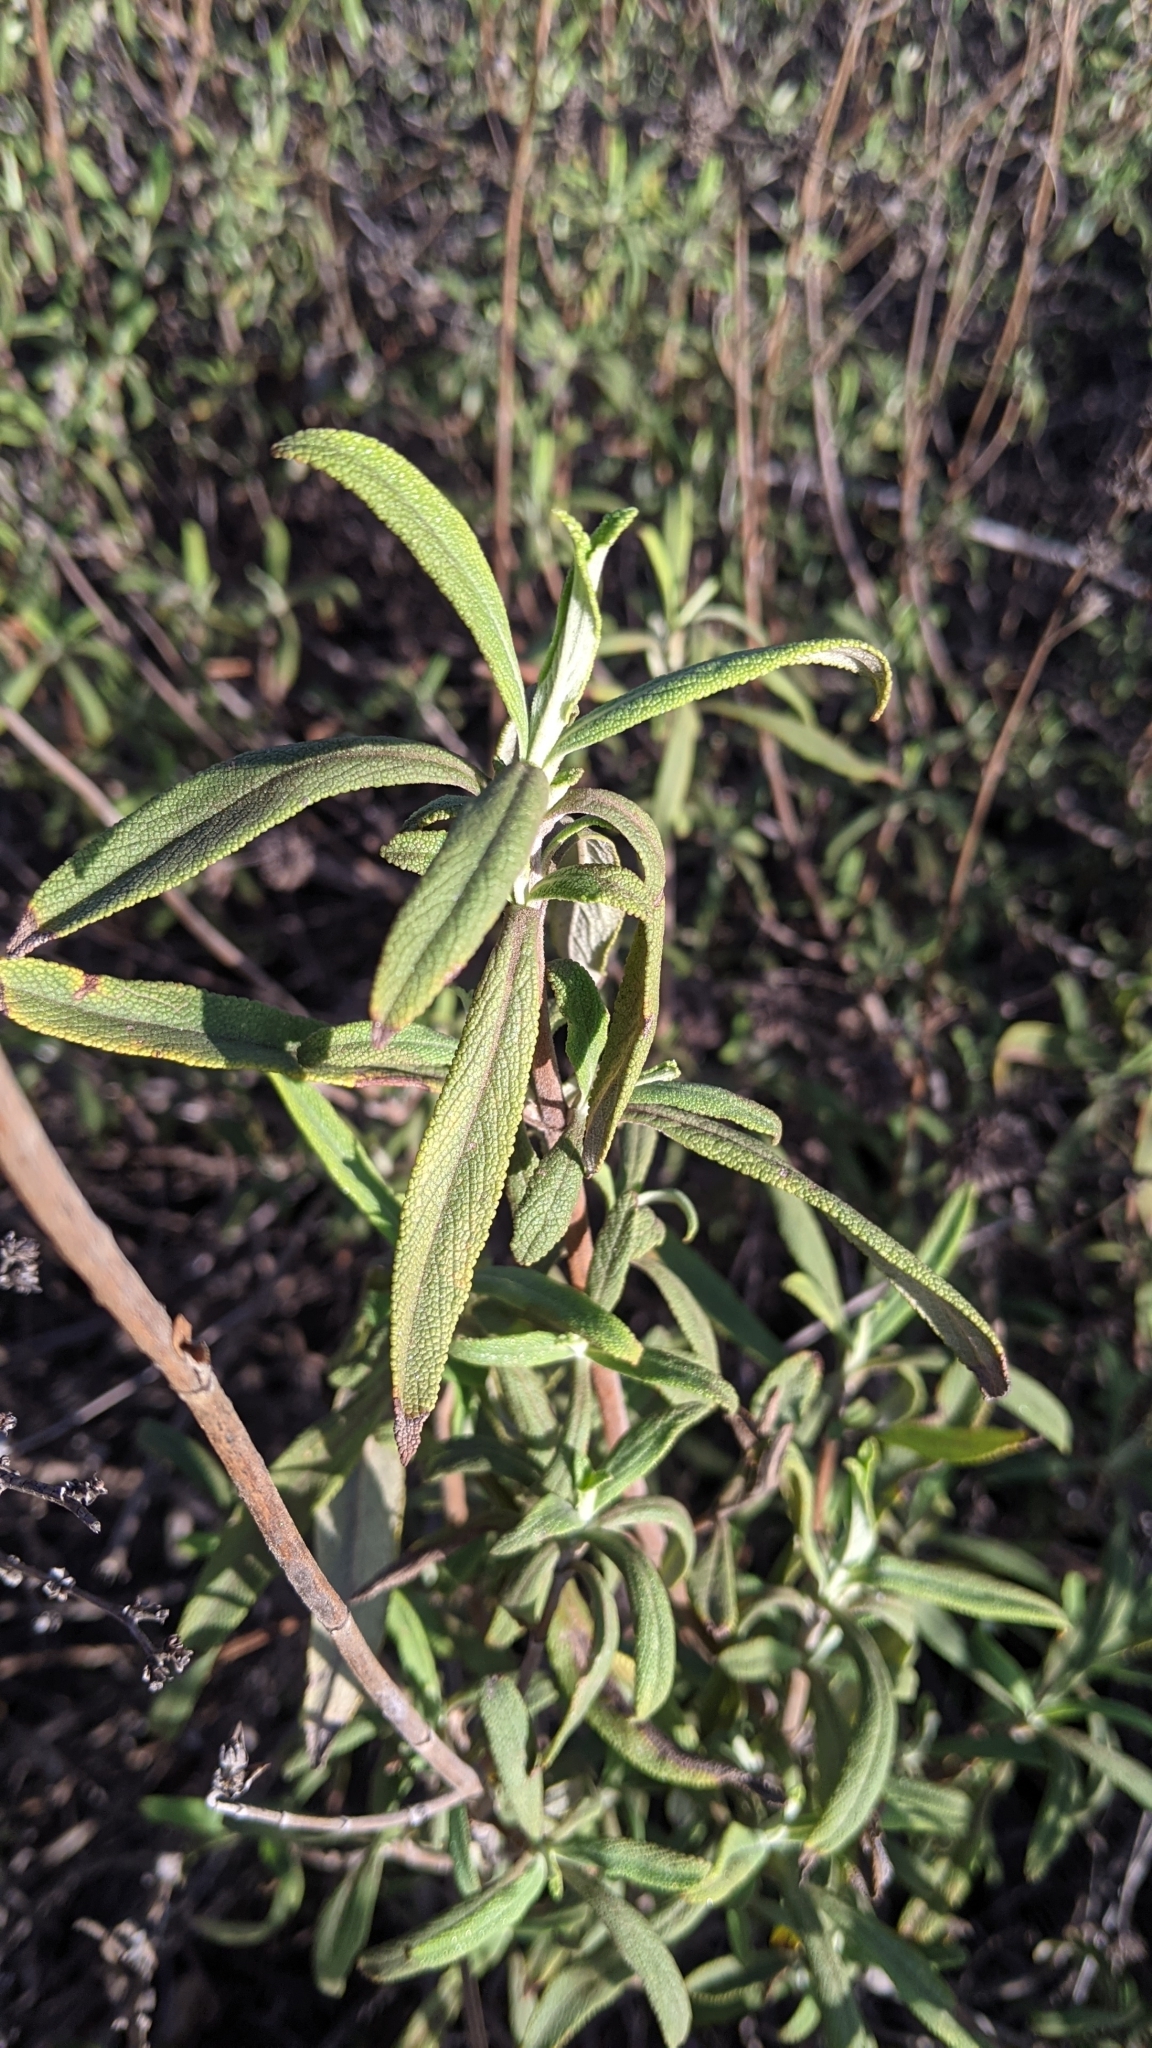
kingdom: Plantae
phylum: Tracheophyta
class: Magnoliopsida
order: Lamiales
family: Lamiaceae
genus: Salvia
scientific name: Salvia mellifera
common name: Black sage
